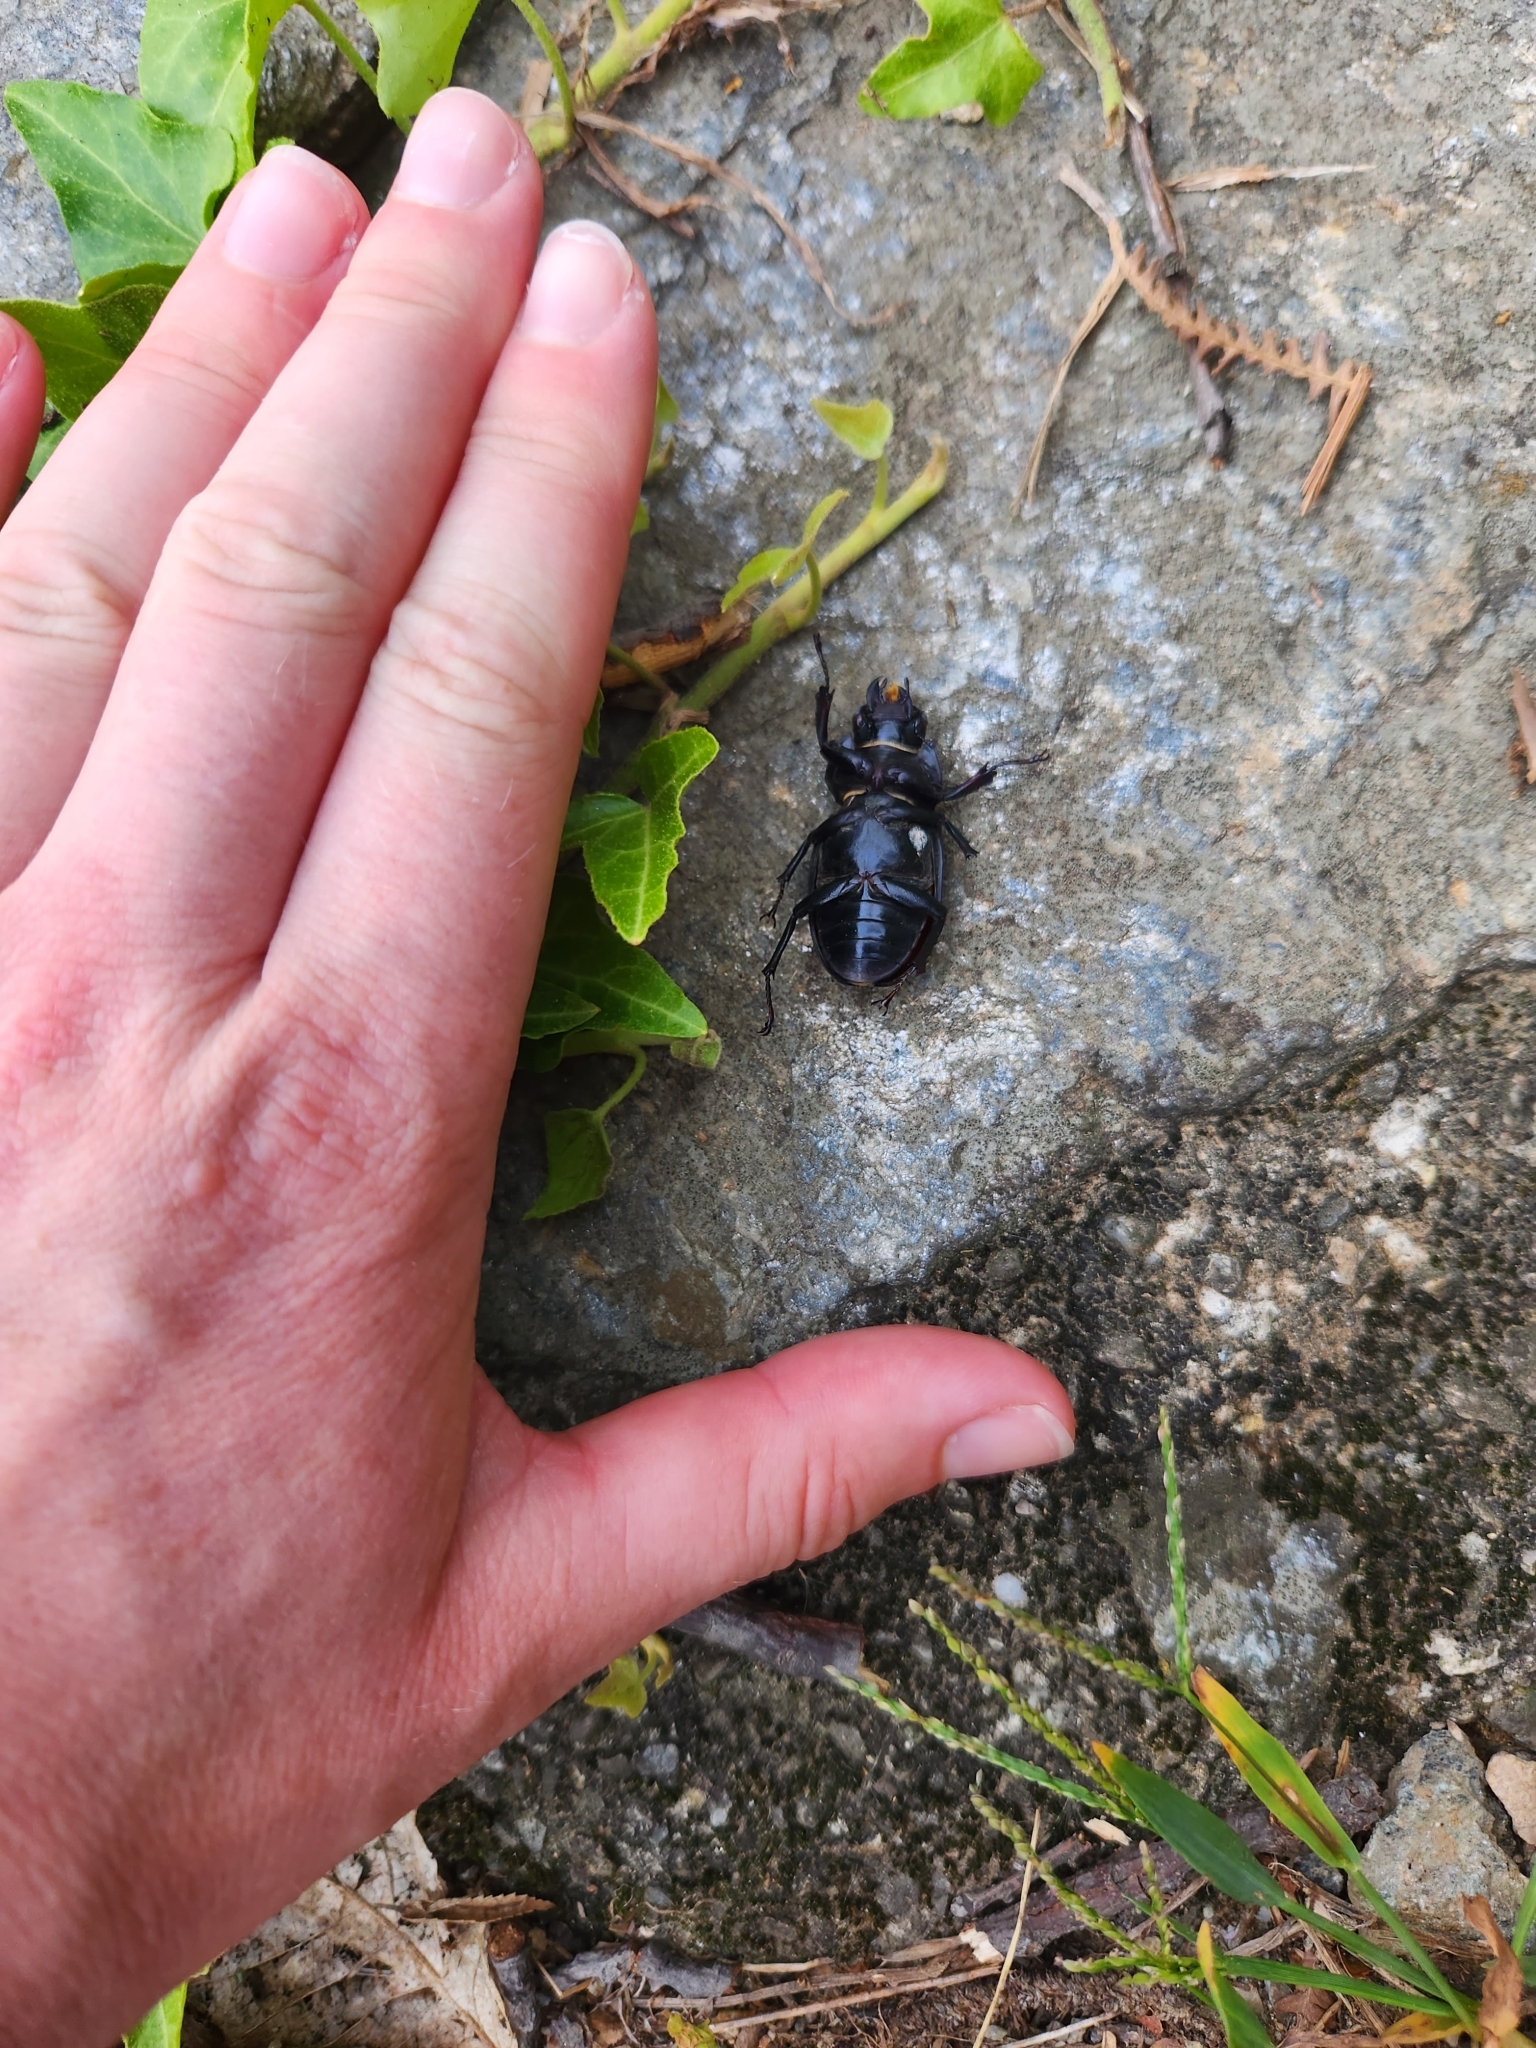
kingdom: Animalia
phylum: Arthropoda
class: Insecta
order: Coleoptera
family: Lucanidae
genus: Lucanus
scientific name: Lucanus cervus
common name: Stag beetle
